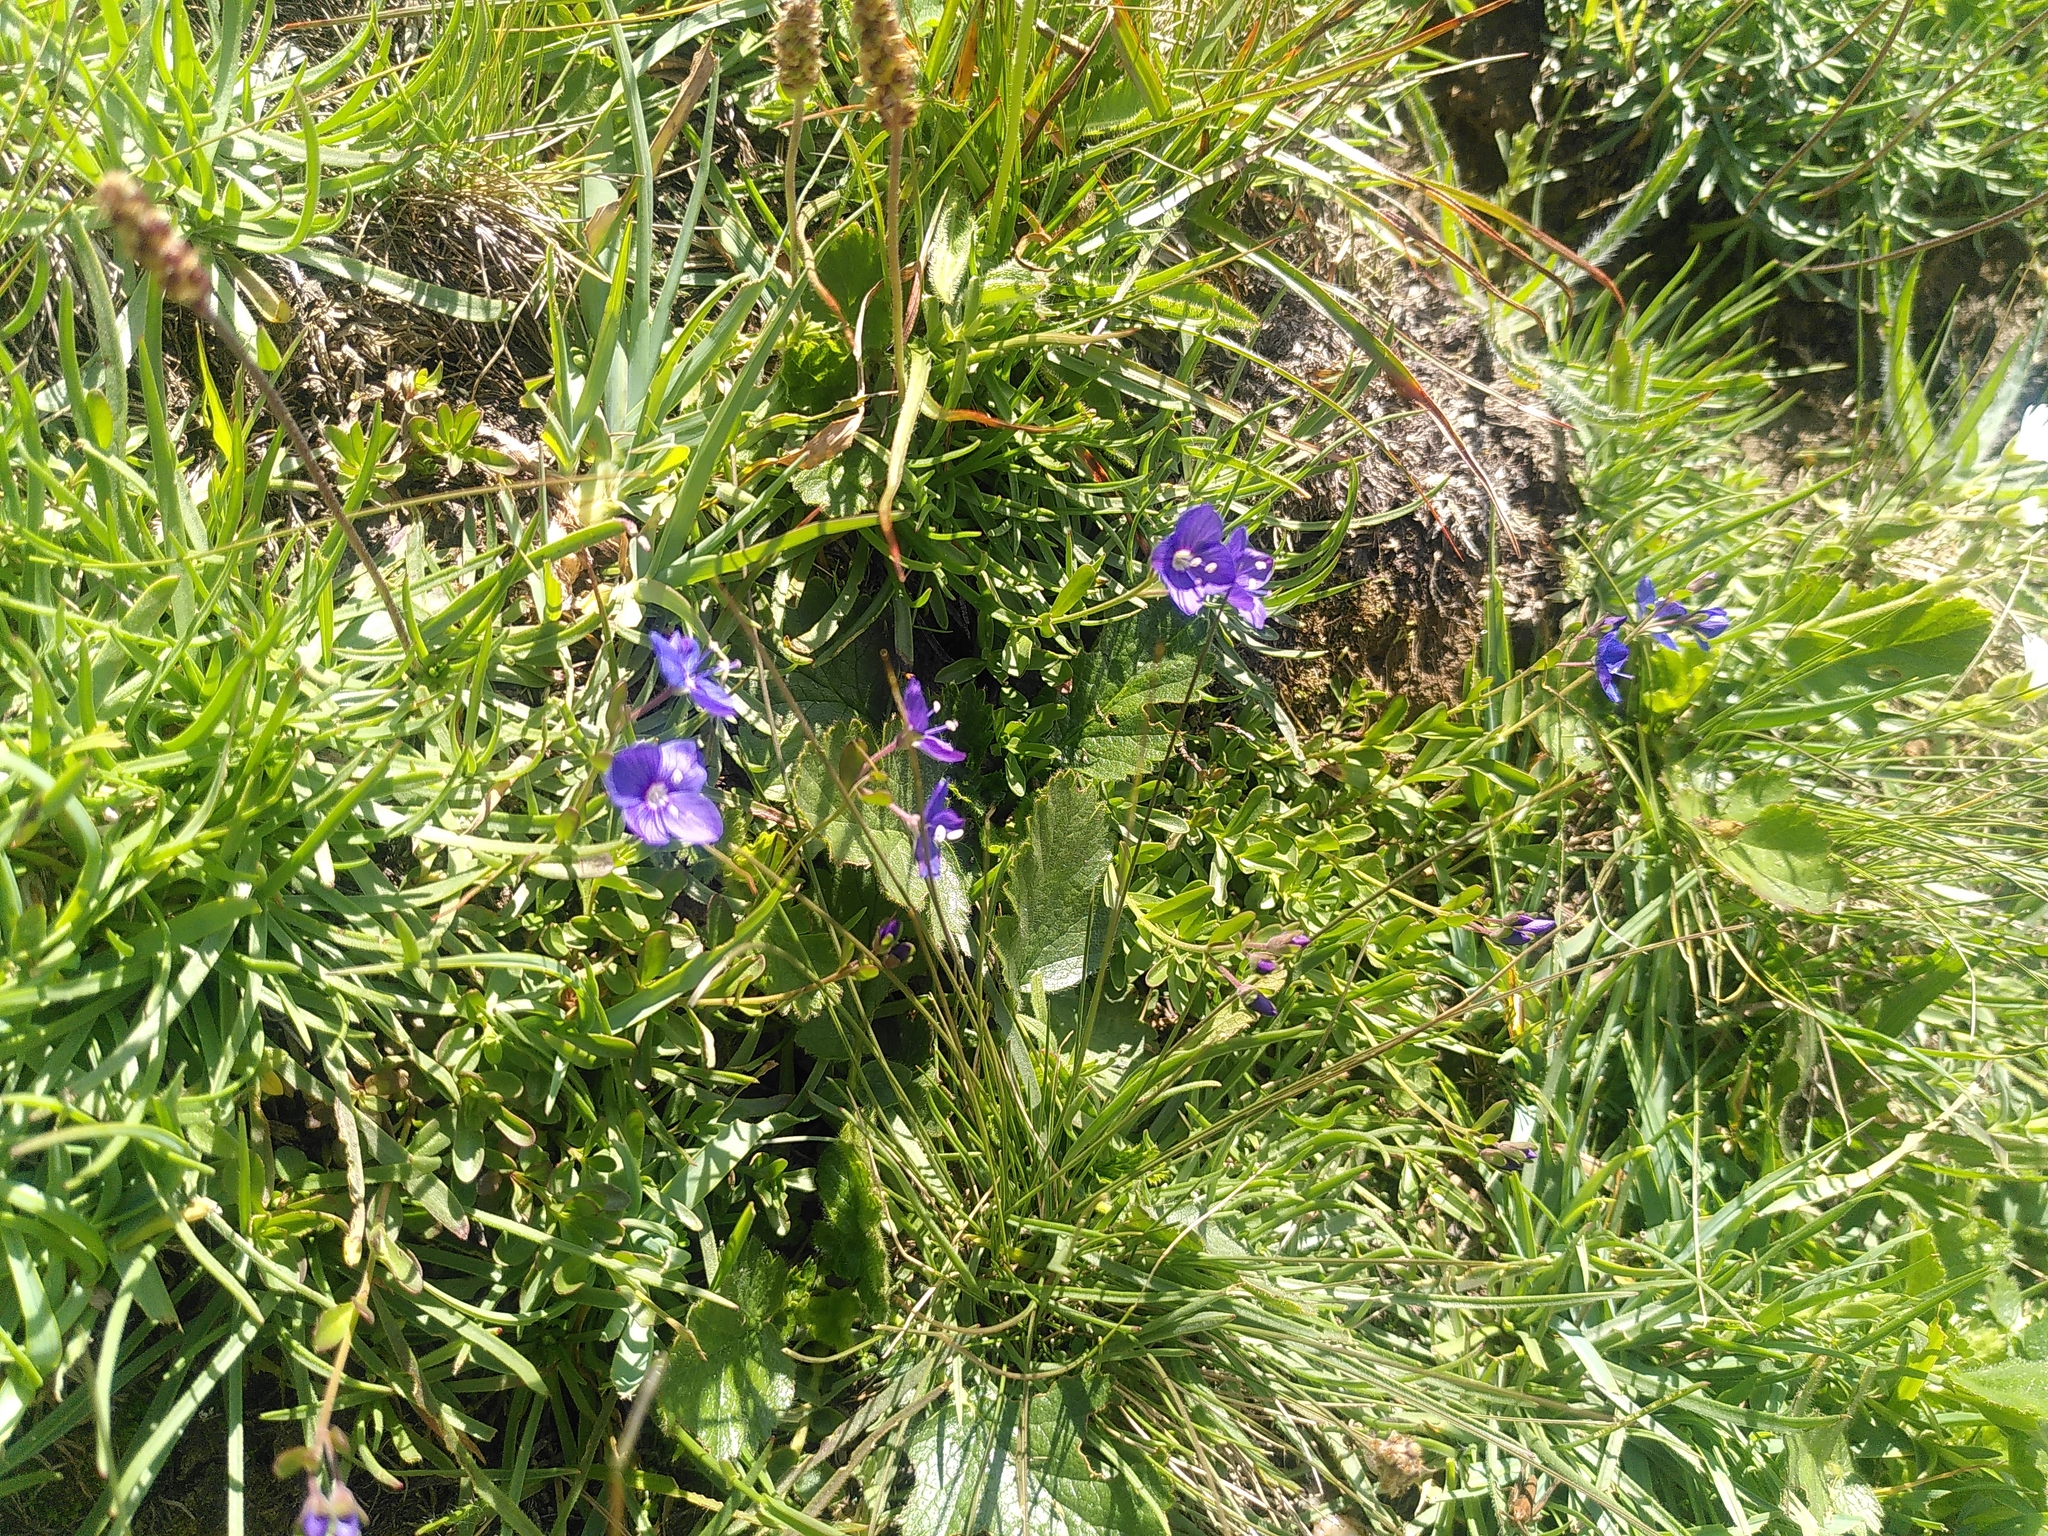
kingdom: Plantae
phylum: Tracheophyta
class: Magnoliopsida
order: Lamiales
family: Plantaginaceae
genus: Veronica
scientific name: Veronica fruticans
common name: Rock speedwell
